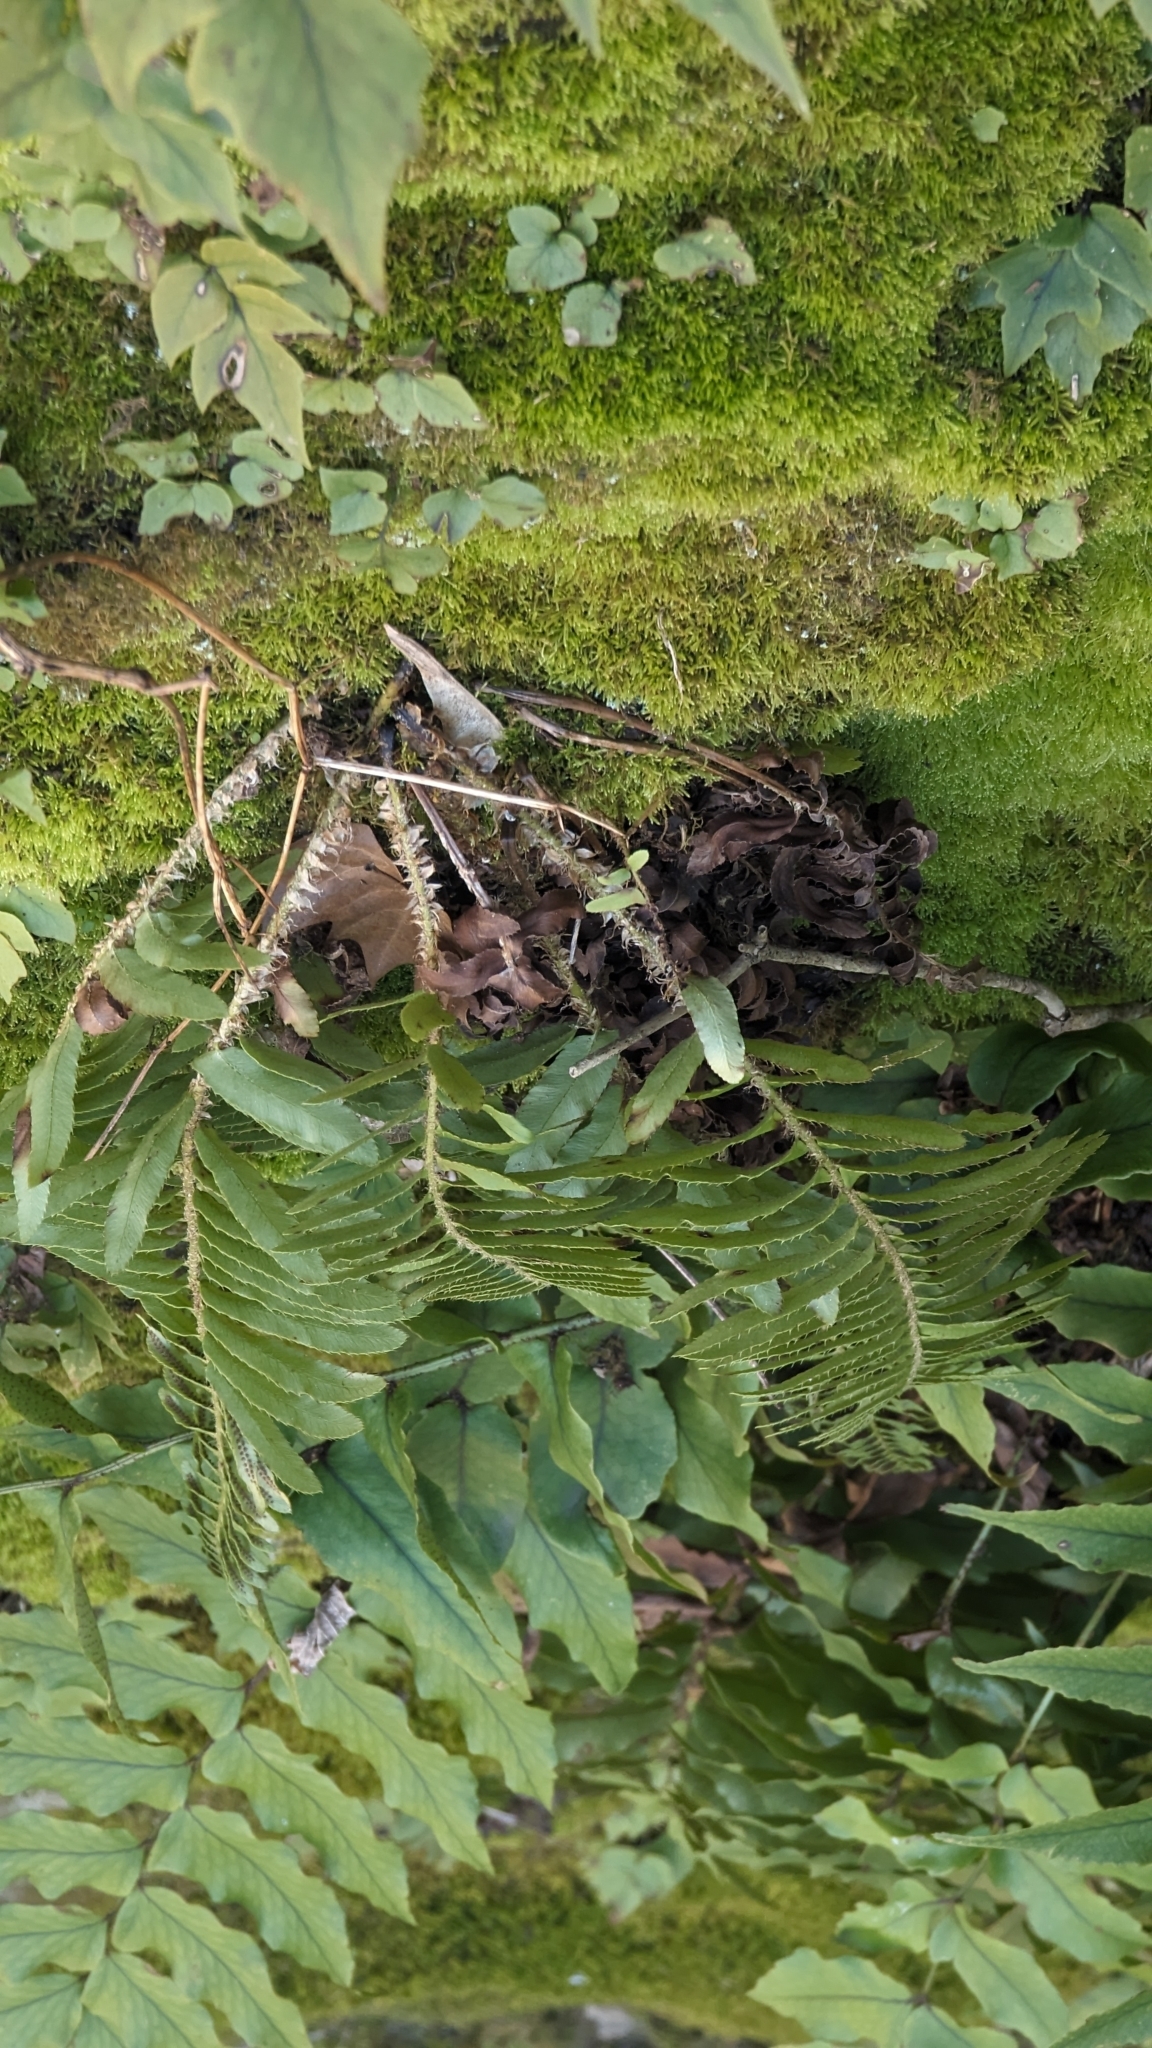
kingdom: Plantae
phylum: Tracheophyta
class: Polypodiopsida
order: Polypodiales
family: Dryopteridaceae
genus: Polystichum
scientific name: Polystichum acrostichoides
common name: Christmas fern
